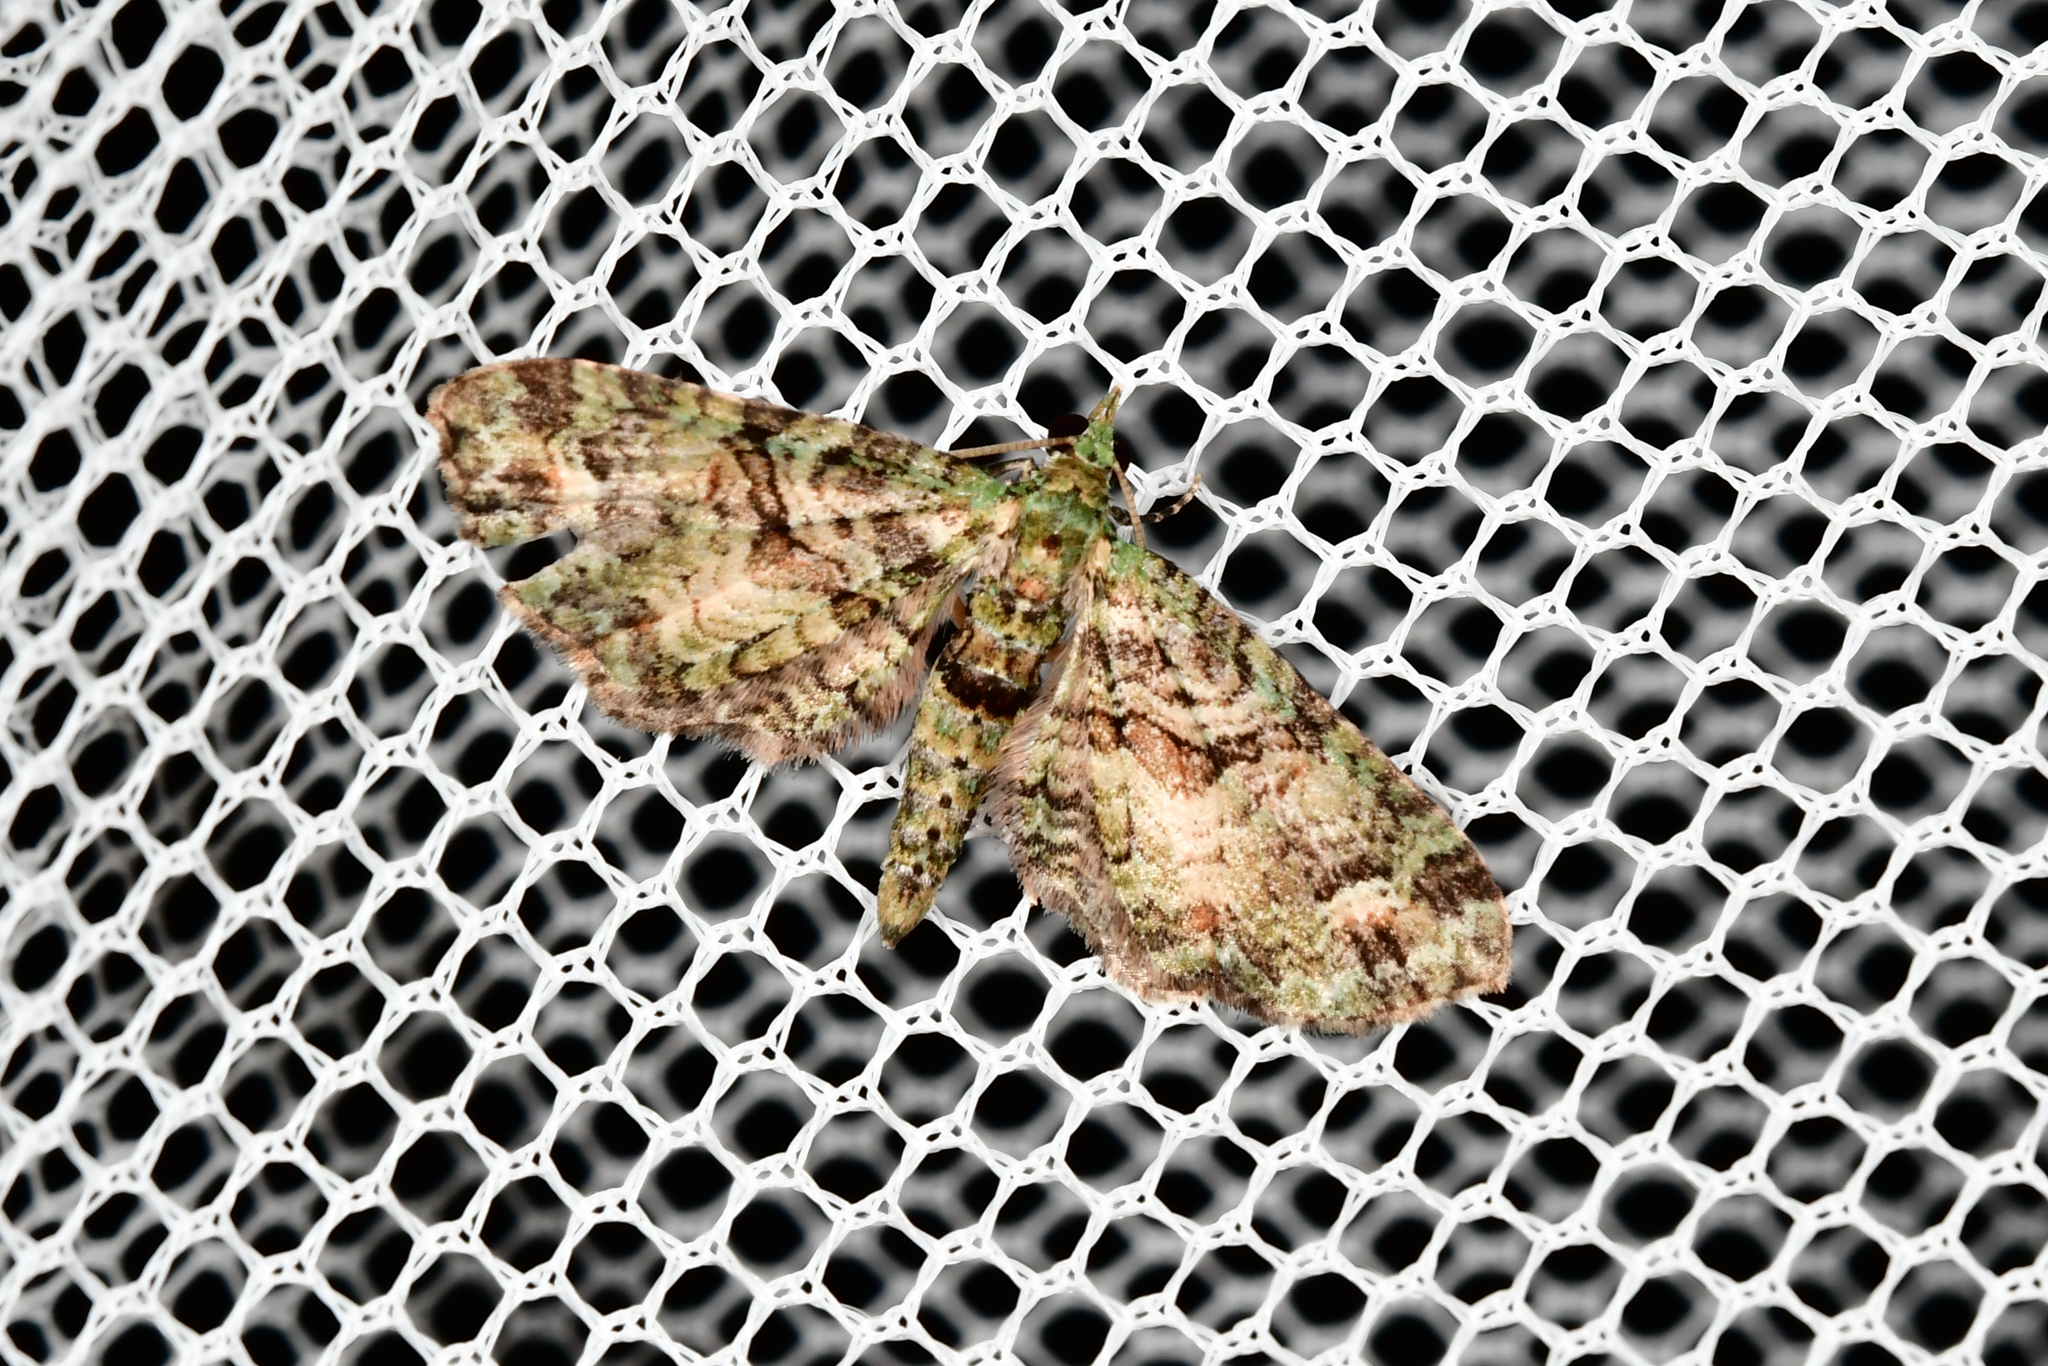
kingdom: Animalia
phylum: Arthropoda
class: Insecta
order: Lepidoptera
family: Geometridae
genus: Idaea
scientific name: Idaea mutanda
